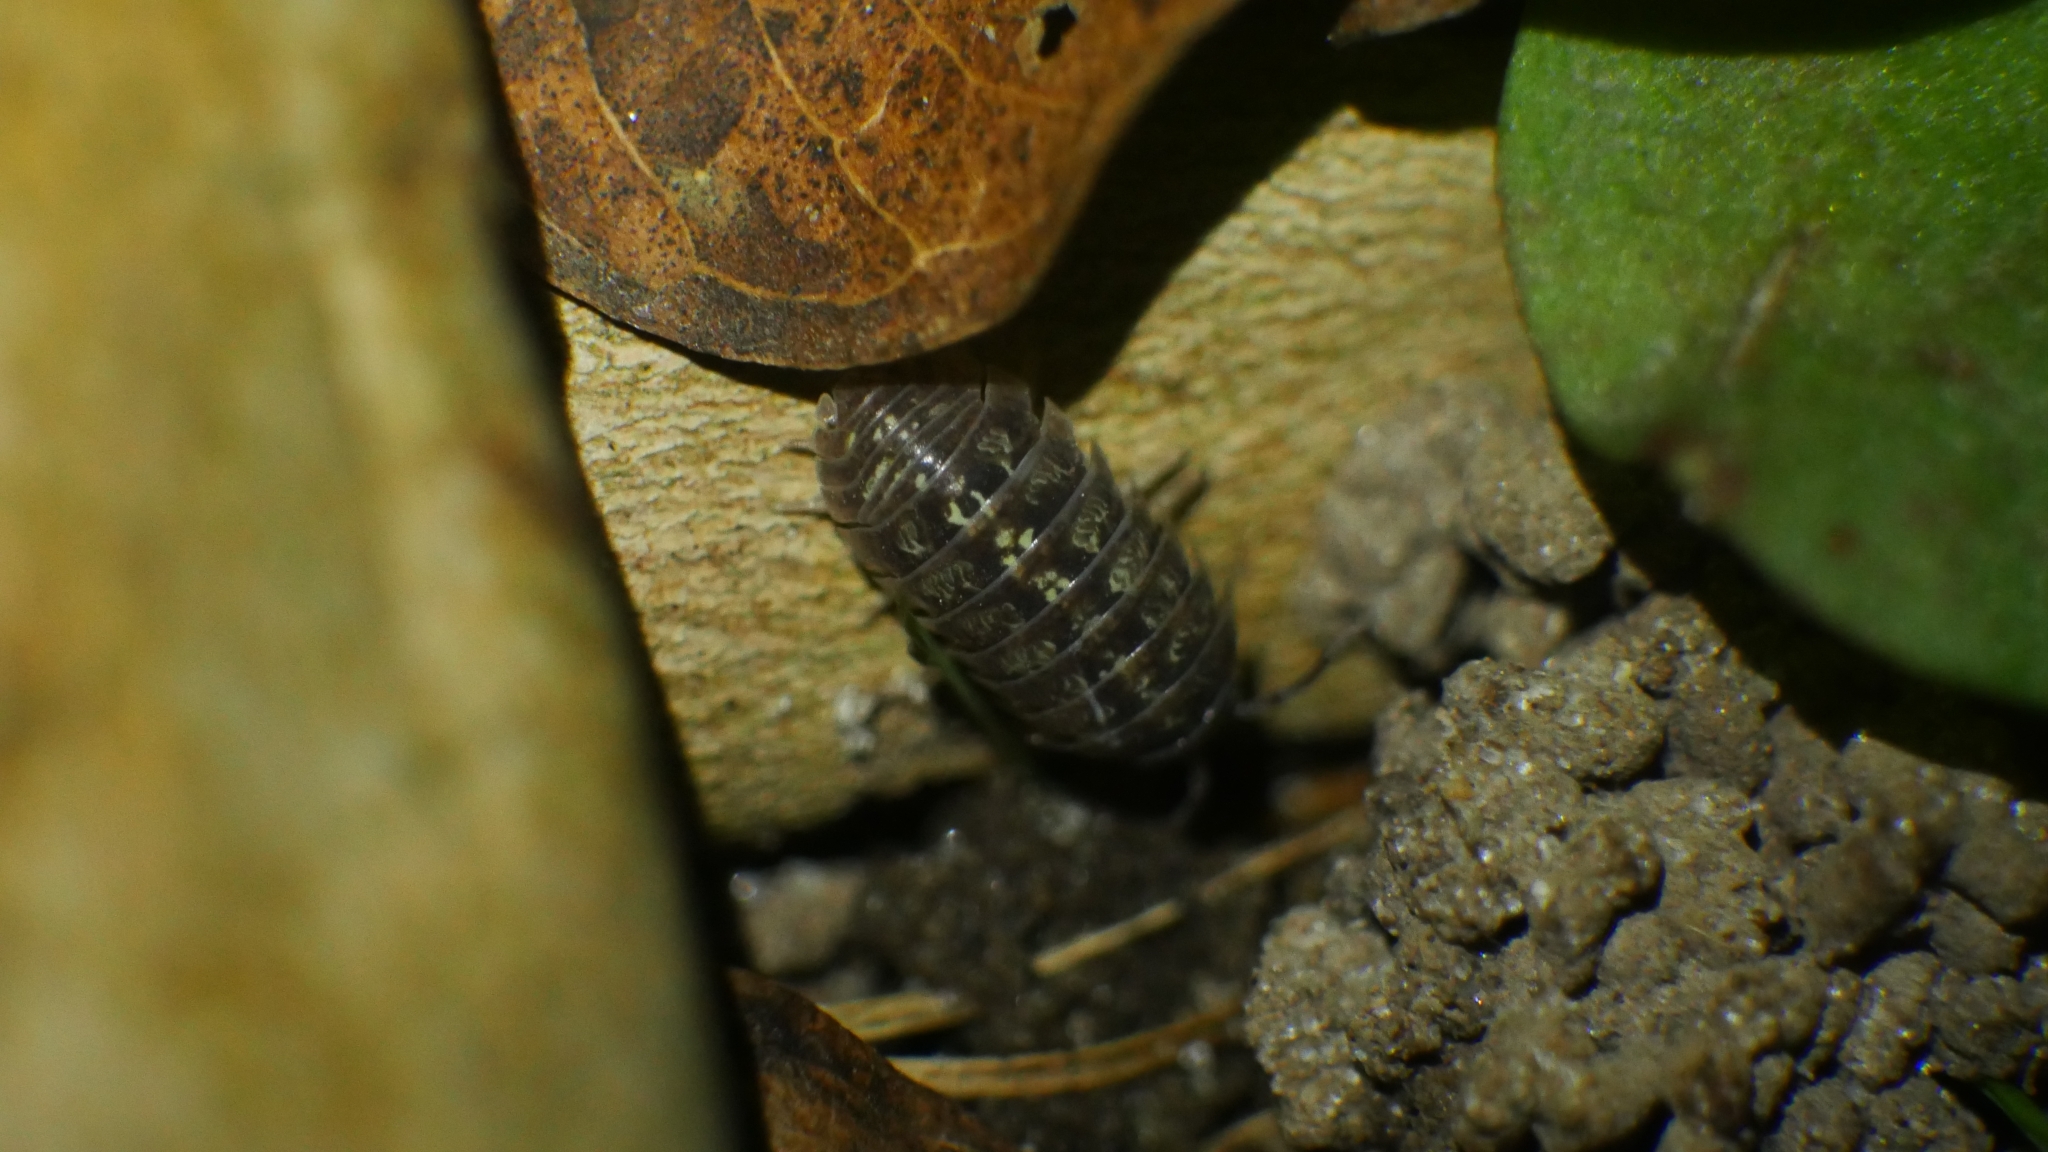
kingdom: Animalia
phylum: Arthropoda
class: Malacostraca
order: Isopoda
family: Armadillidiidae
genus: Armadillidium
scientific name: Armadillidium vulgare
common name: Common pill woodlouse
